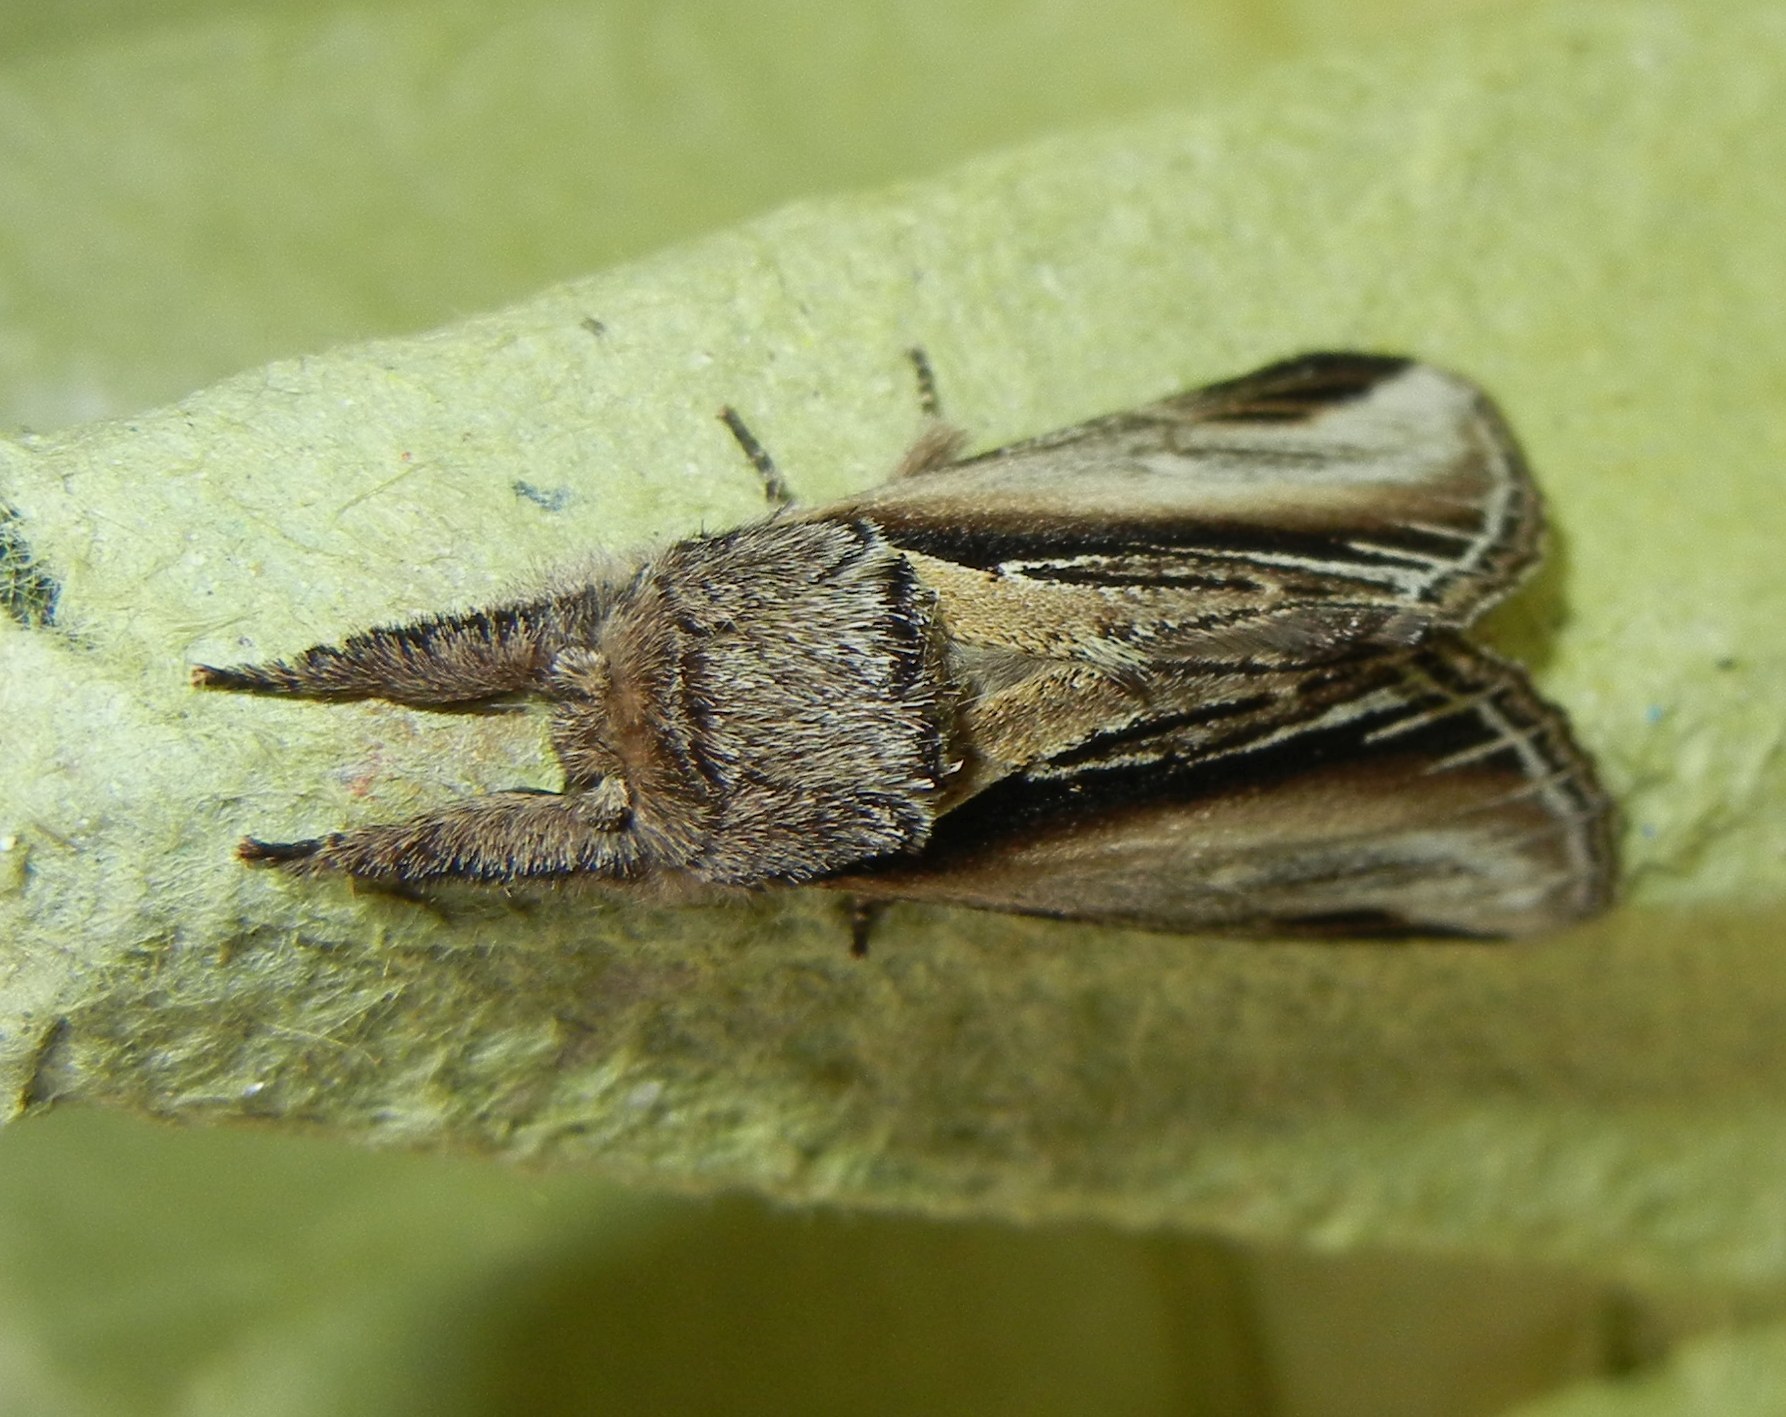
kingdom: Animalia
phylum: Arthropoda
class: Insecta
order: Lepidoptera
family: Notodontidae
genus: Pheosia
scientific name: Pheosia tremula
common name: Swallow prominent
